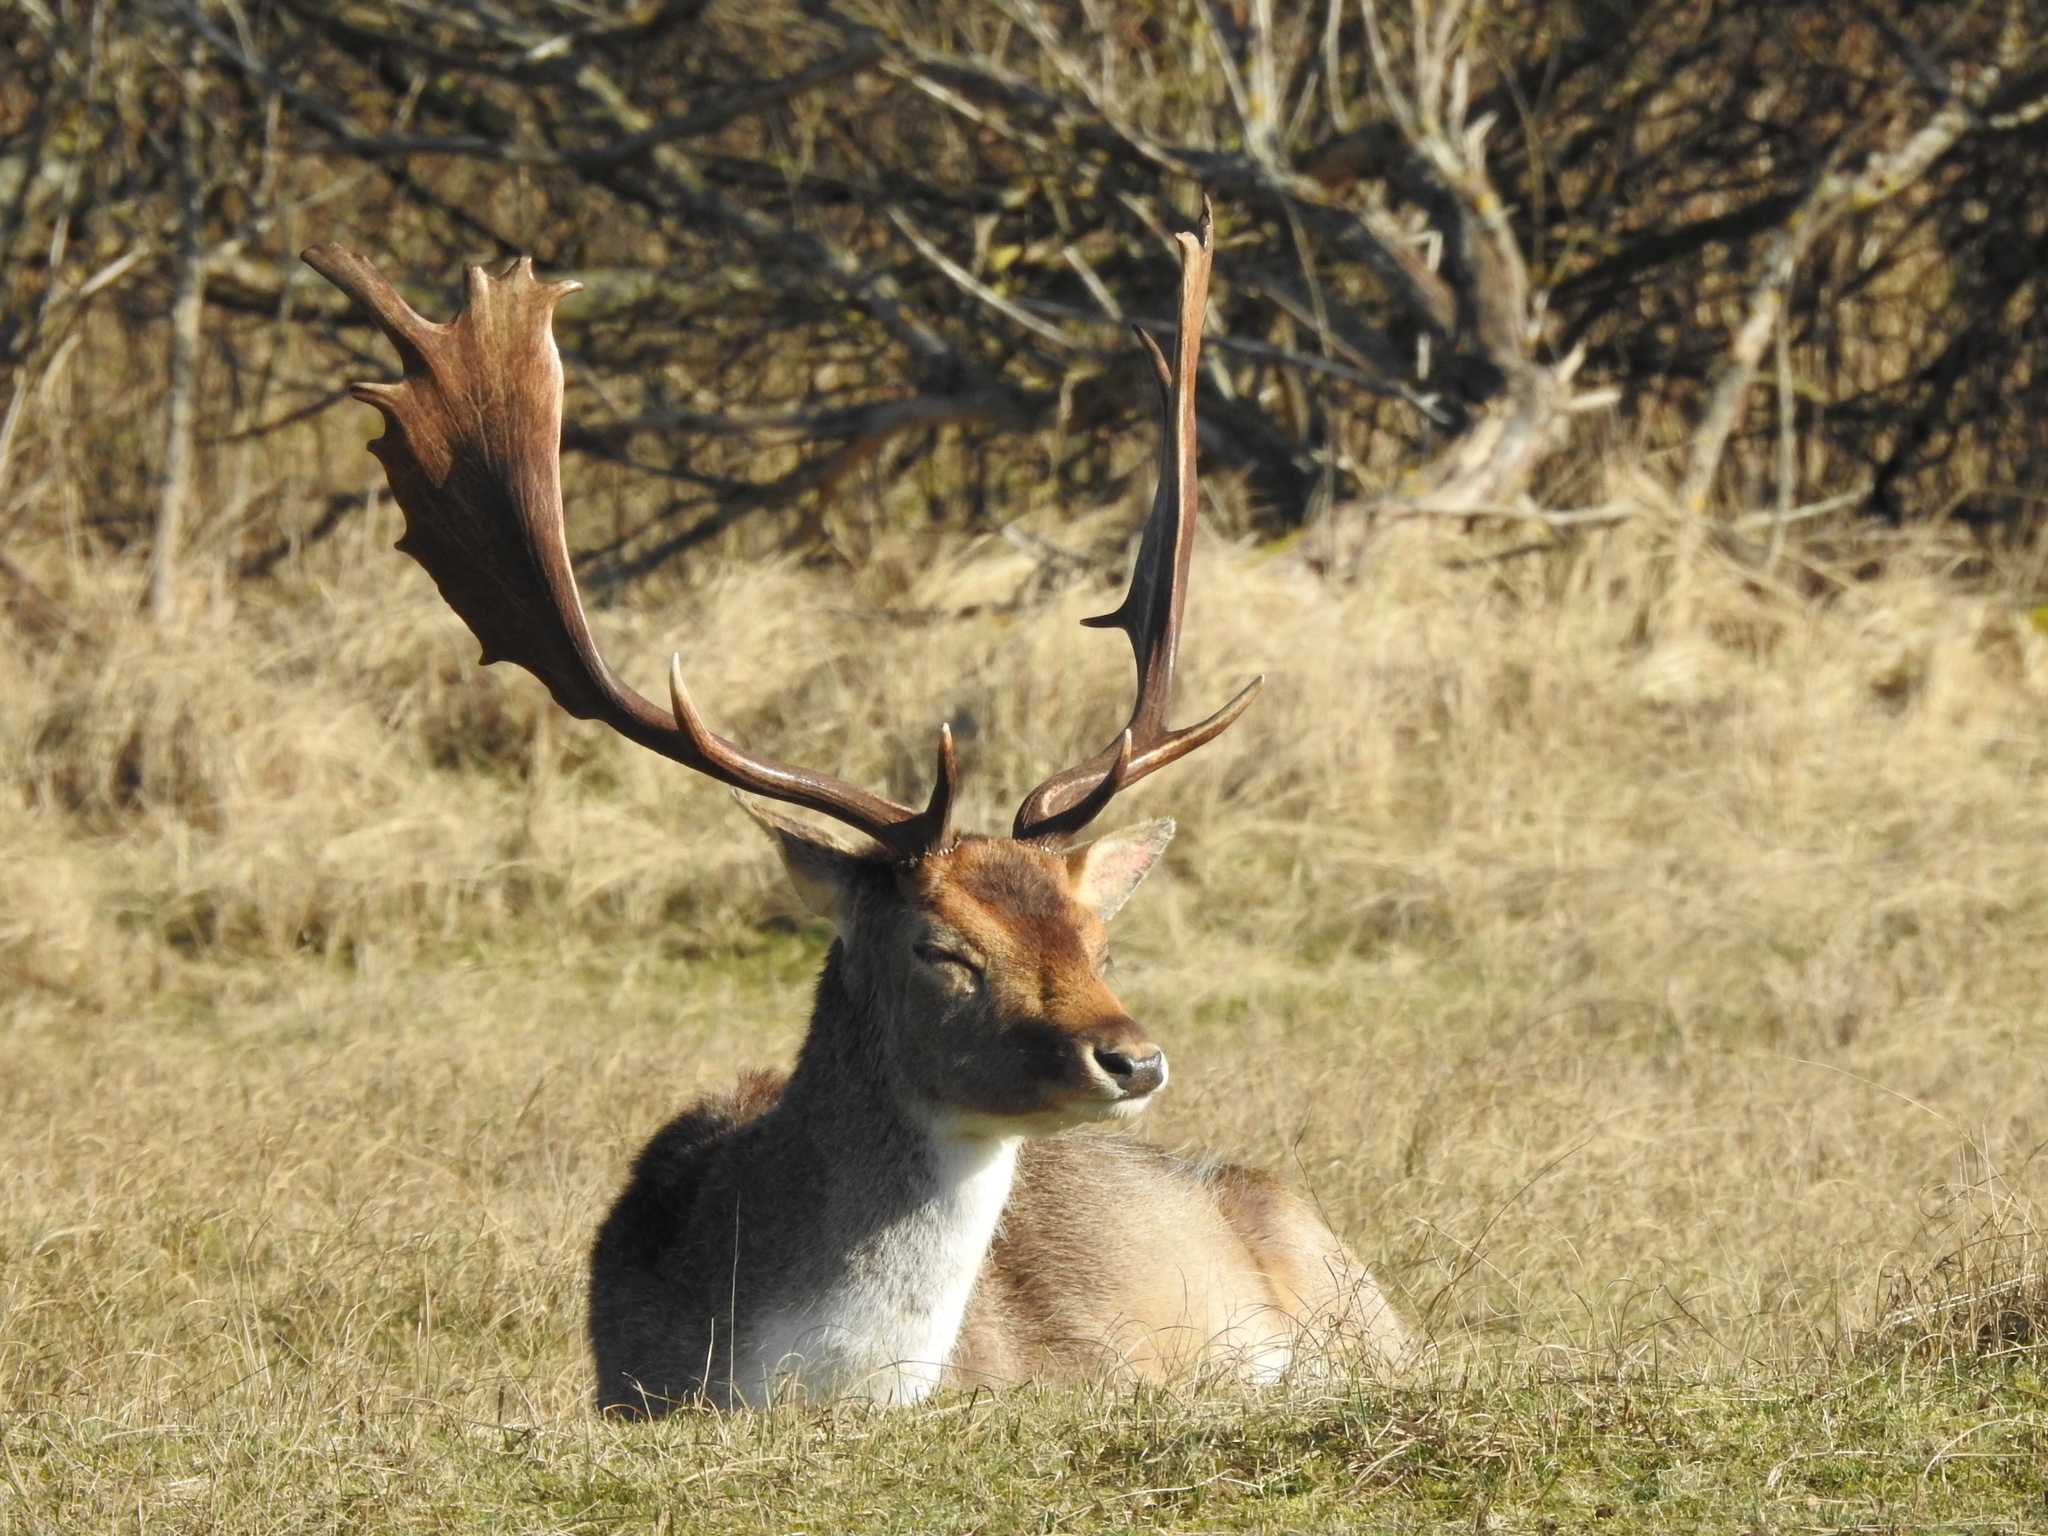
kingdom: Animalia
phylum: Chordata
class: Mammalia
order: Artiodactyla
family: Cervidae
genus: Dama
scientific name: Dama dama
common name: Fallow deer
